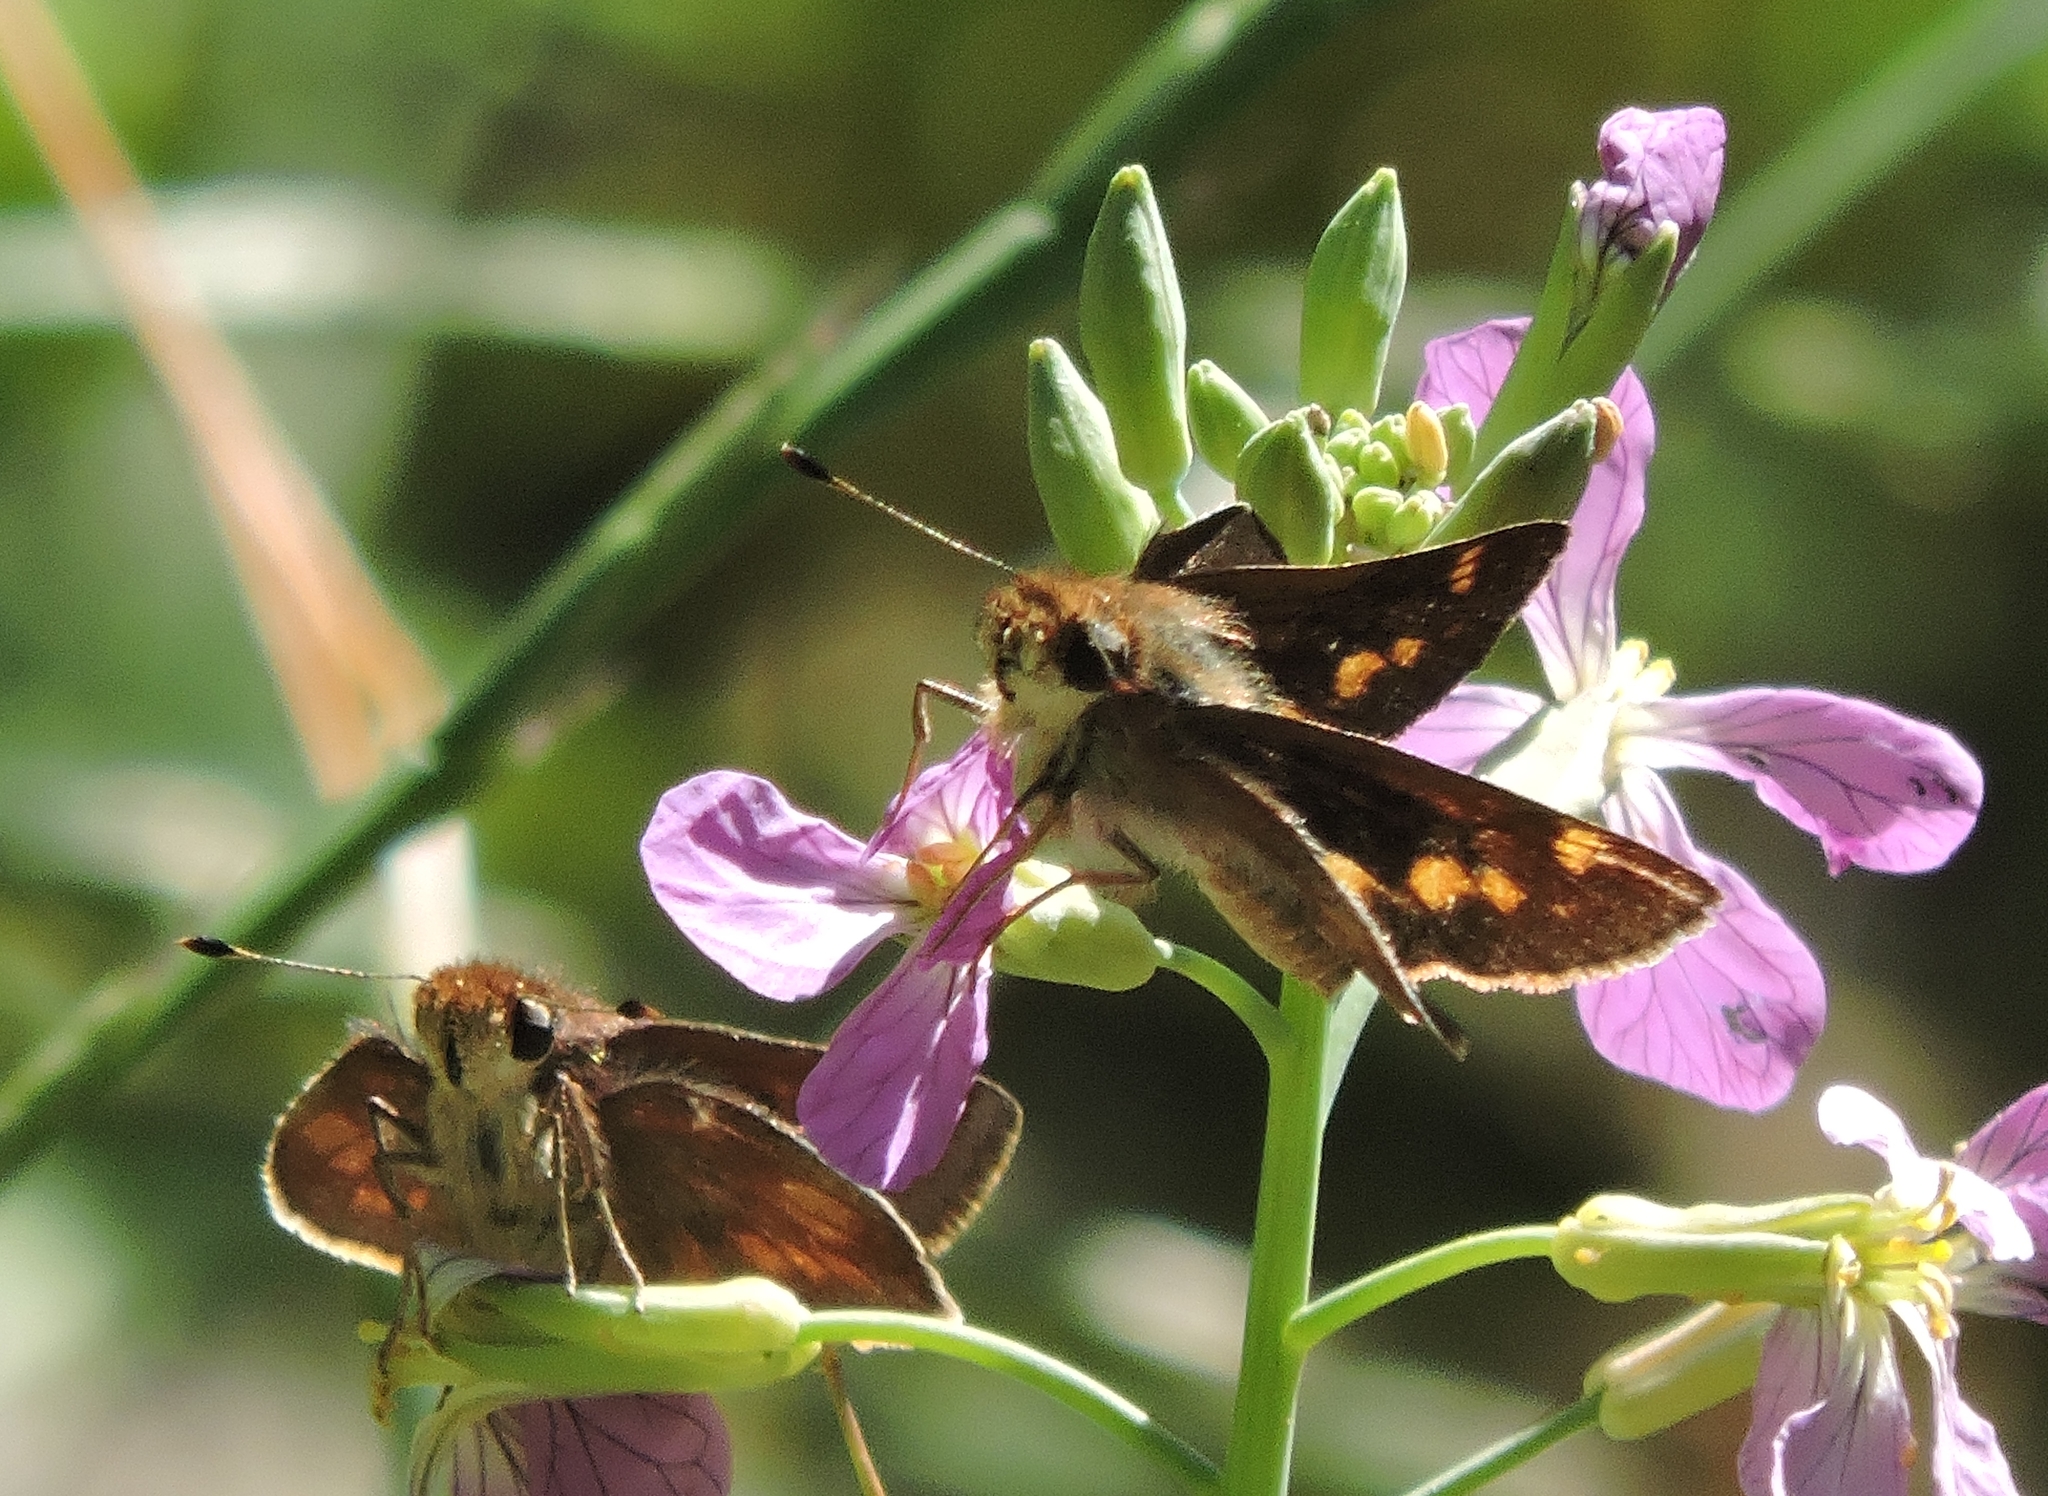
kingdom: Animalia
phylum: Arthropoda
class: Insecta
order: Lepidoptera
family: Hesperiidae
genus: Lon
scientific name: Lon melane
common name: Umber skipper
